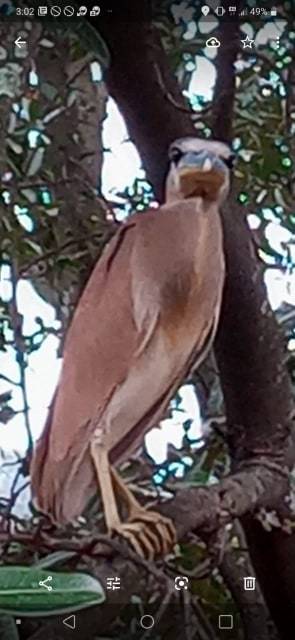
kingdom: Animalia
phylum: Chordata
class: Aves
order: Pelecaniformes
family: Ardeidae
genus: Cochlearius
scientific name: Cochlearius cochlearius
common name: Boat-billed heron
